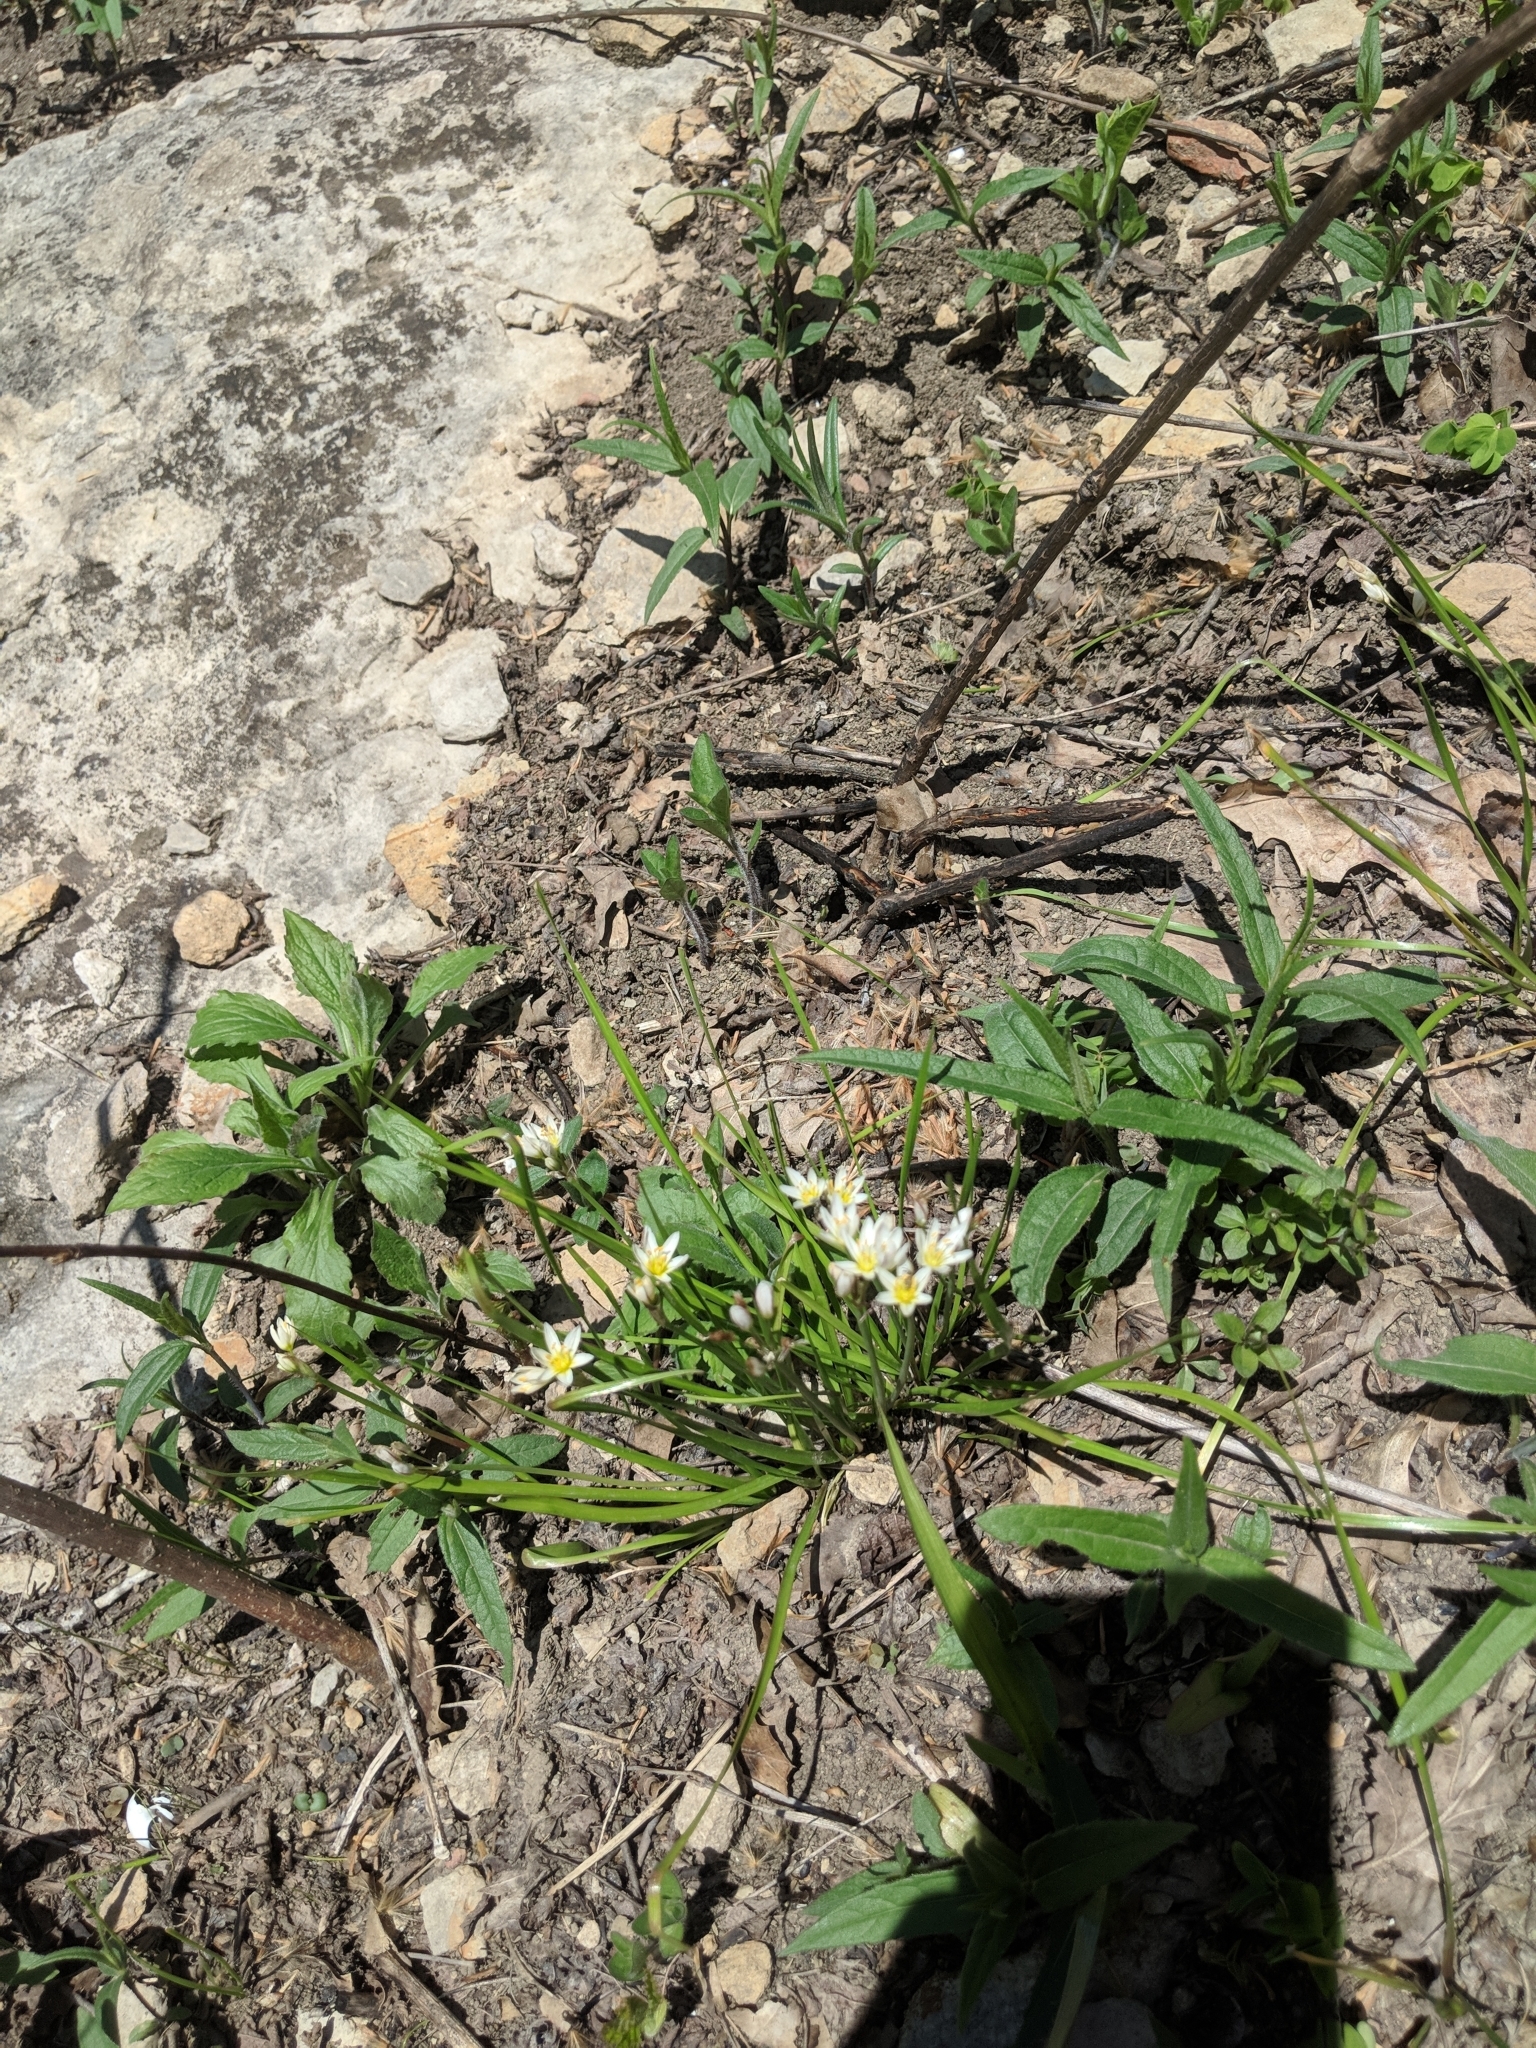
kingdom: Plantae
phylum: Tracheophyta
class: Liliopsida
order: Asparagales
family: Amaryllidaceae
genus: Nothoscordum
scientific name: Nothoscordum bivalve
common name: Crow-poison
